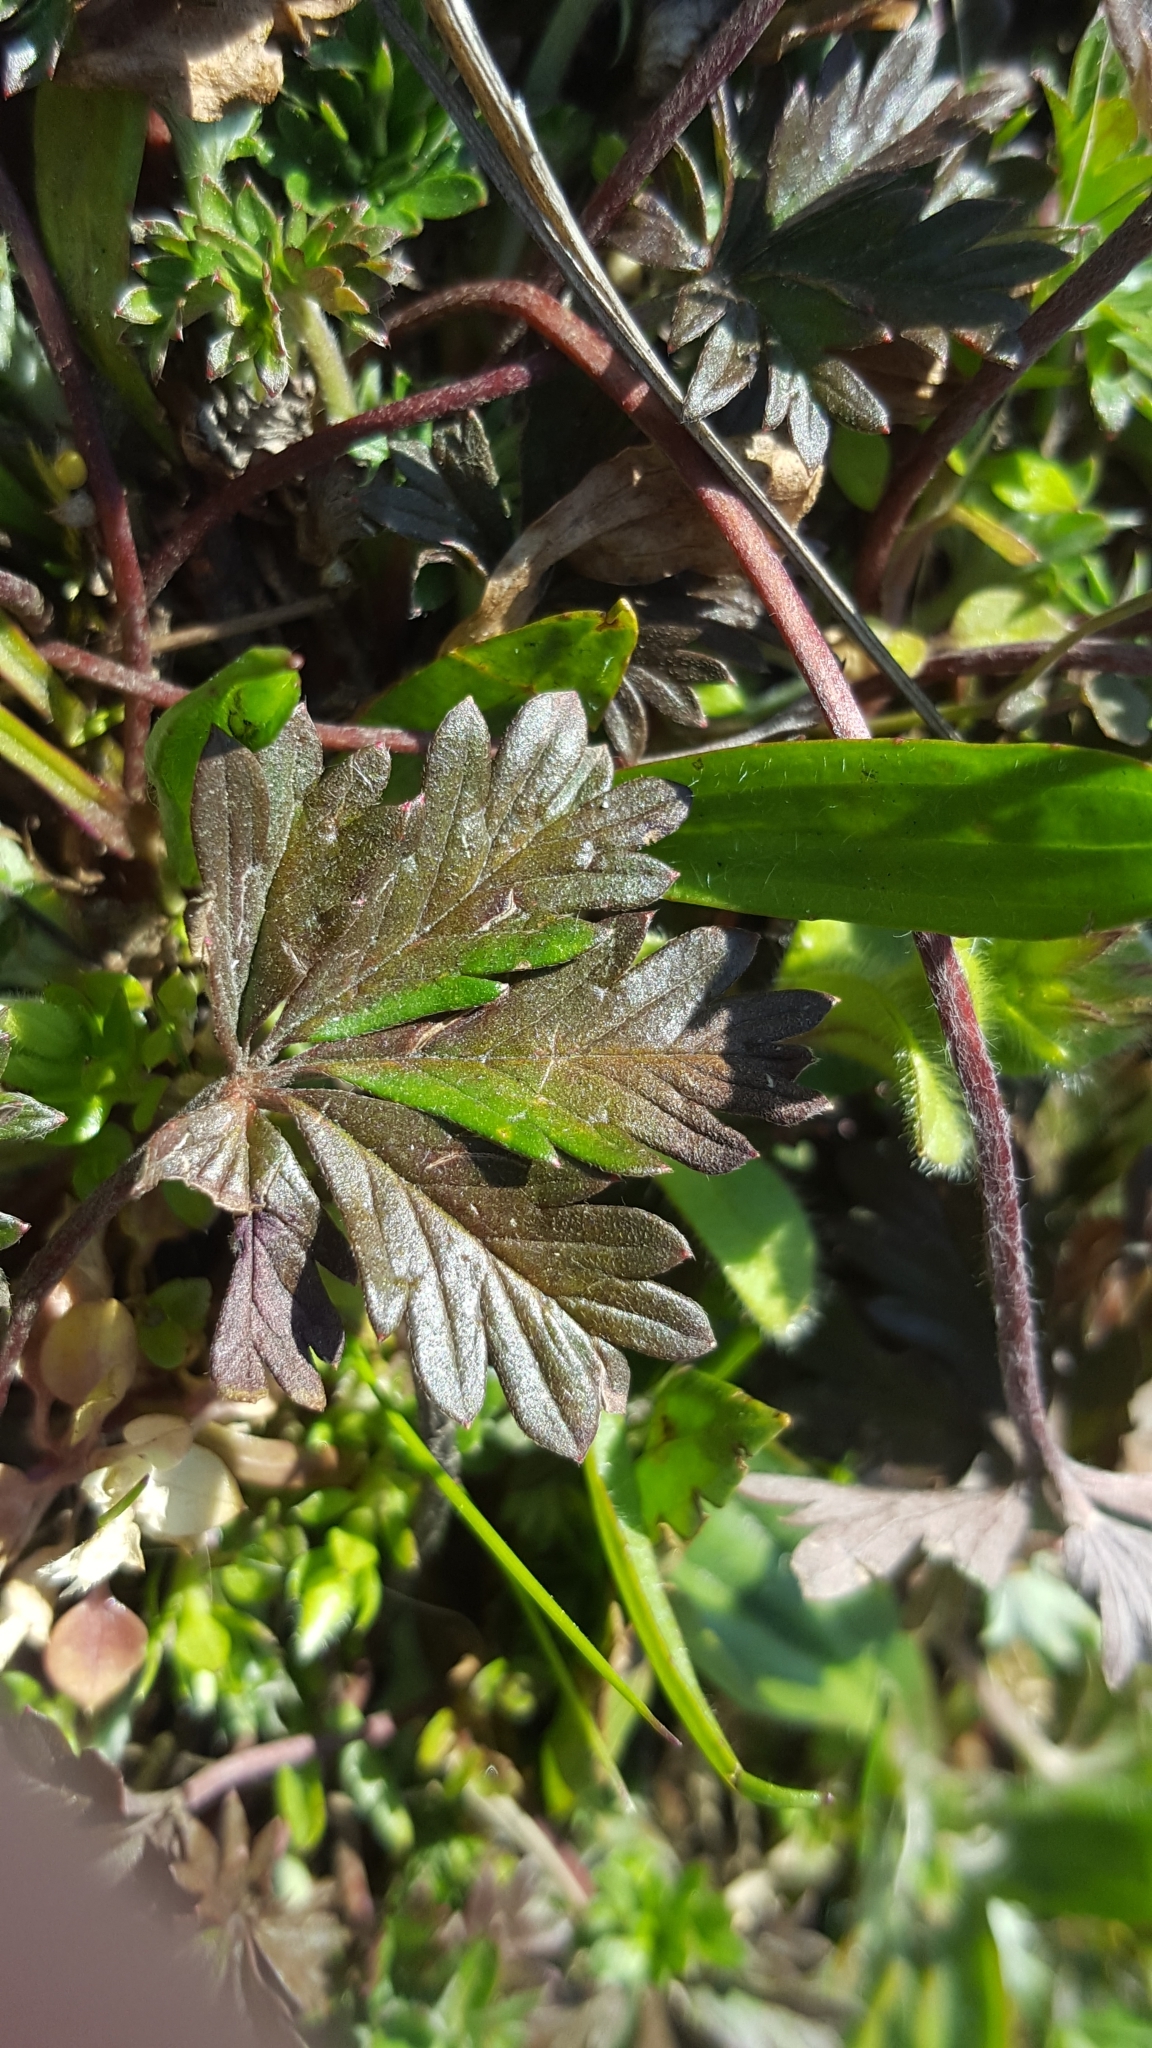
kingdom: Plantae
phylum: Tracheophyta
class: Magnoliopsida
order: Rosales
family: Rosaceae
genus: Potentilla
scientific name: Potentilla argentea
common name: Hoary cinquefoil
